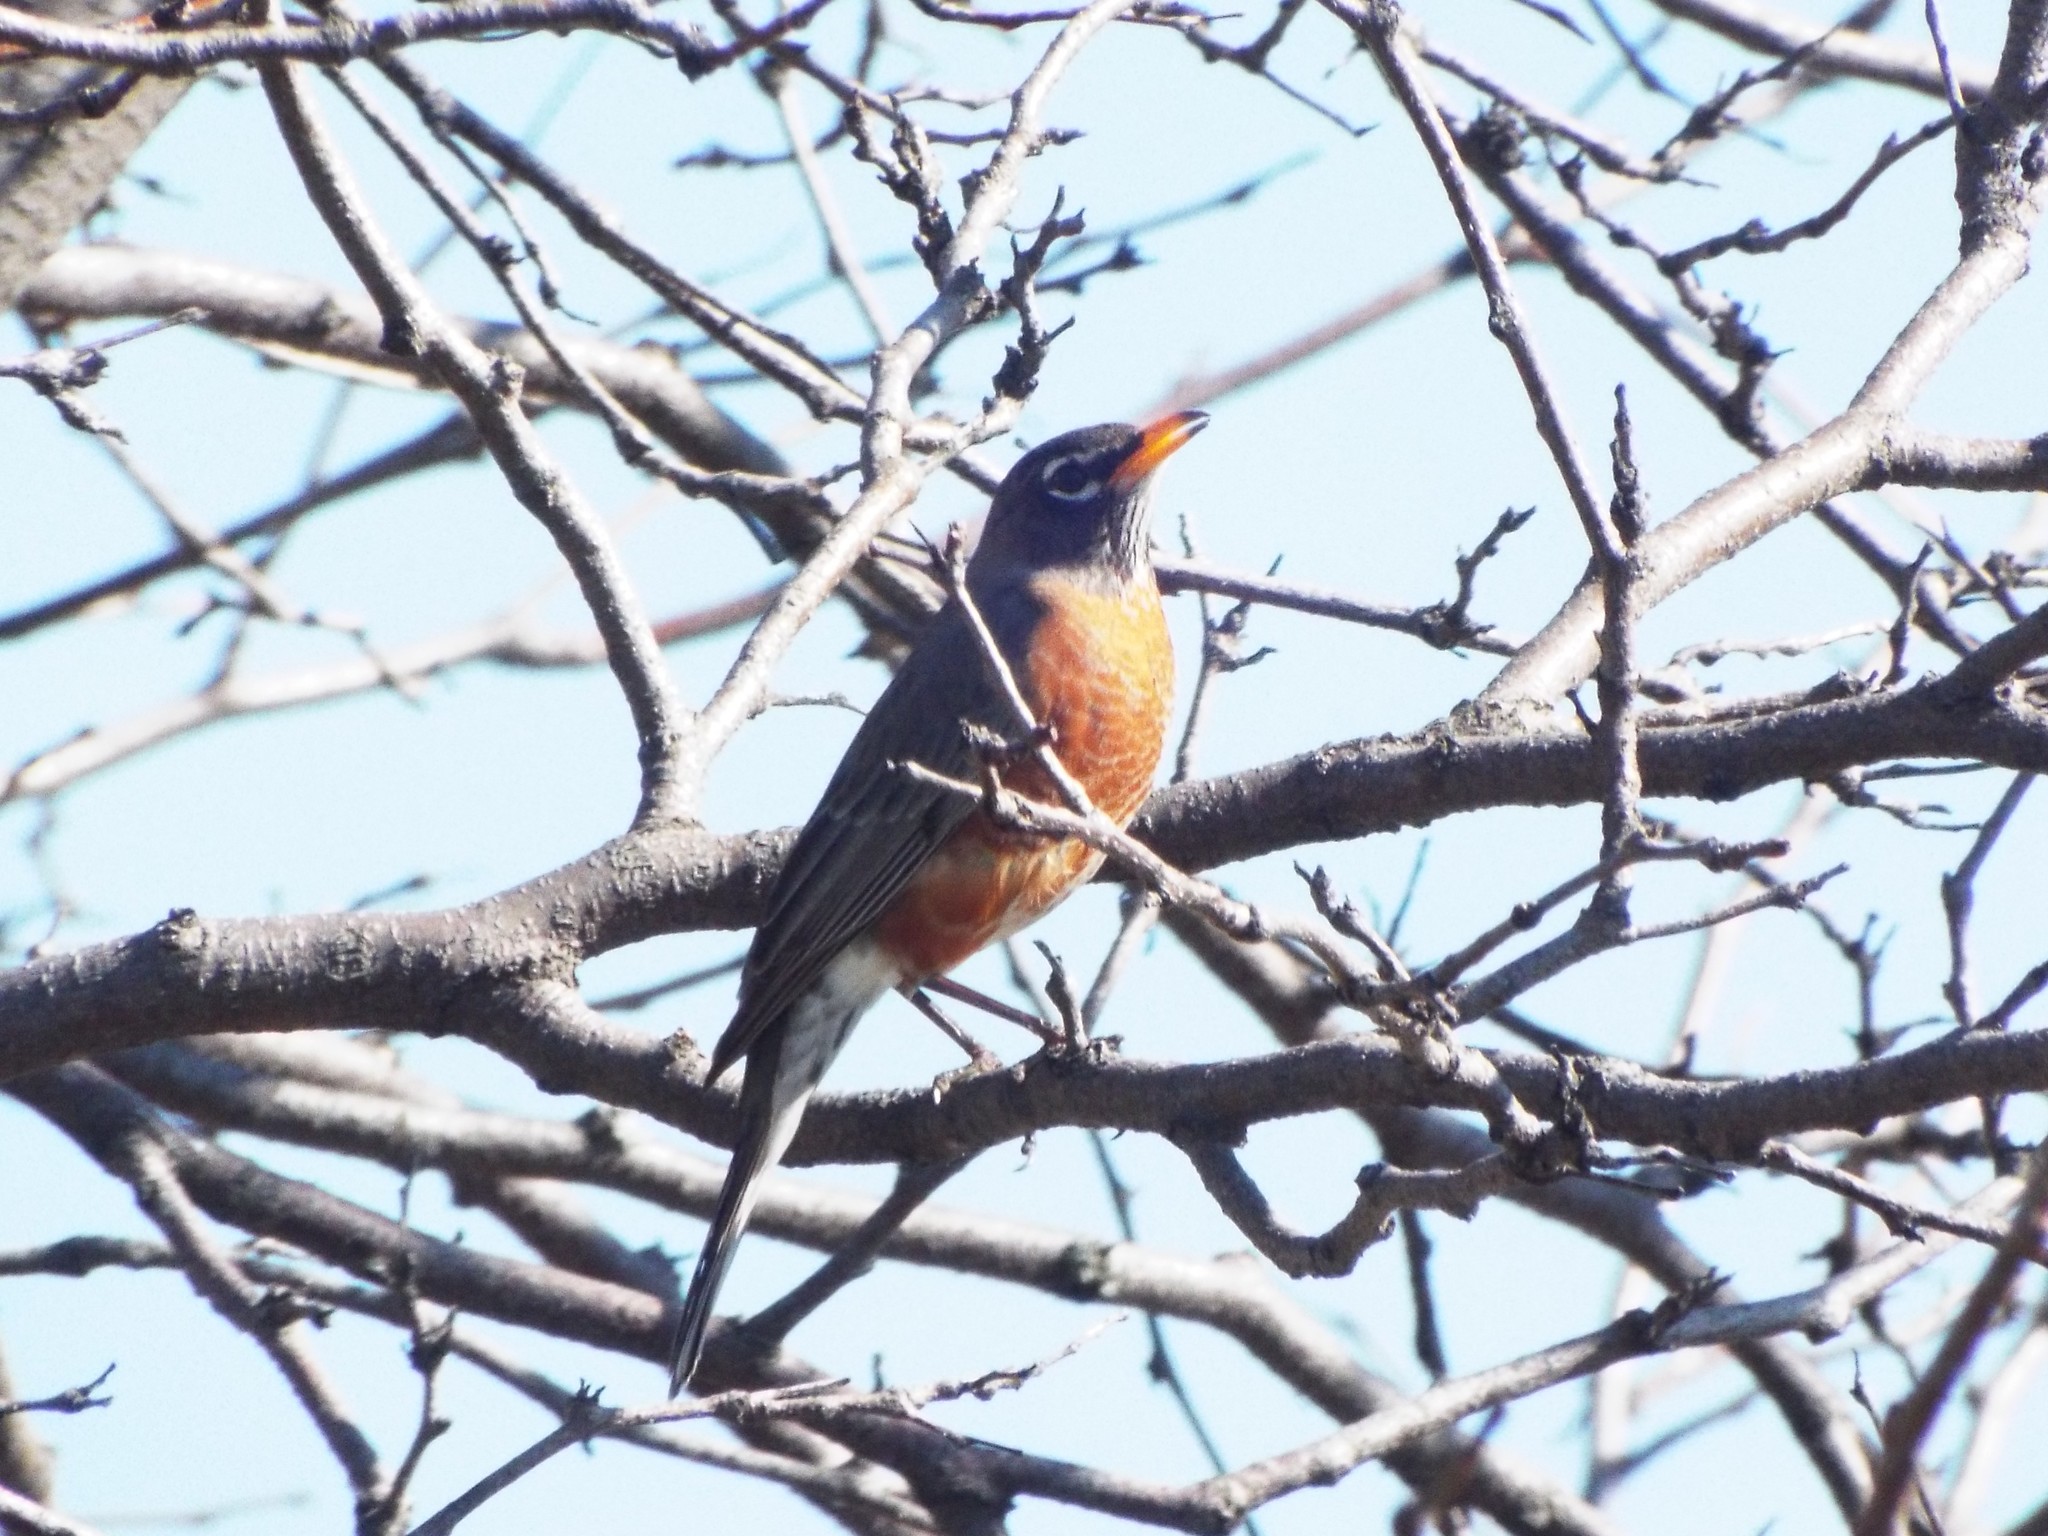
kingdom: Animalia
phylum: Chordata
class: Aves
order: Passeriformes
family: Turdidae
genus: Turdus
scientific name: Turdus migratorius
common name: American robin
